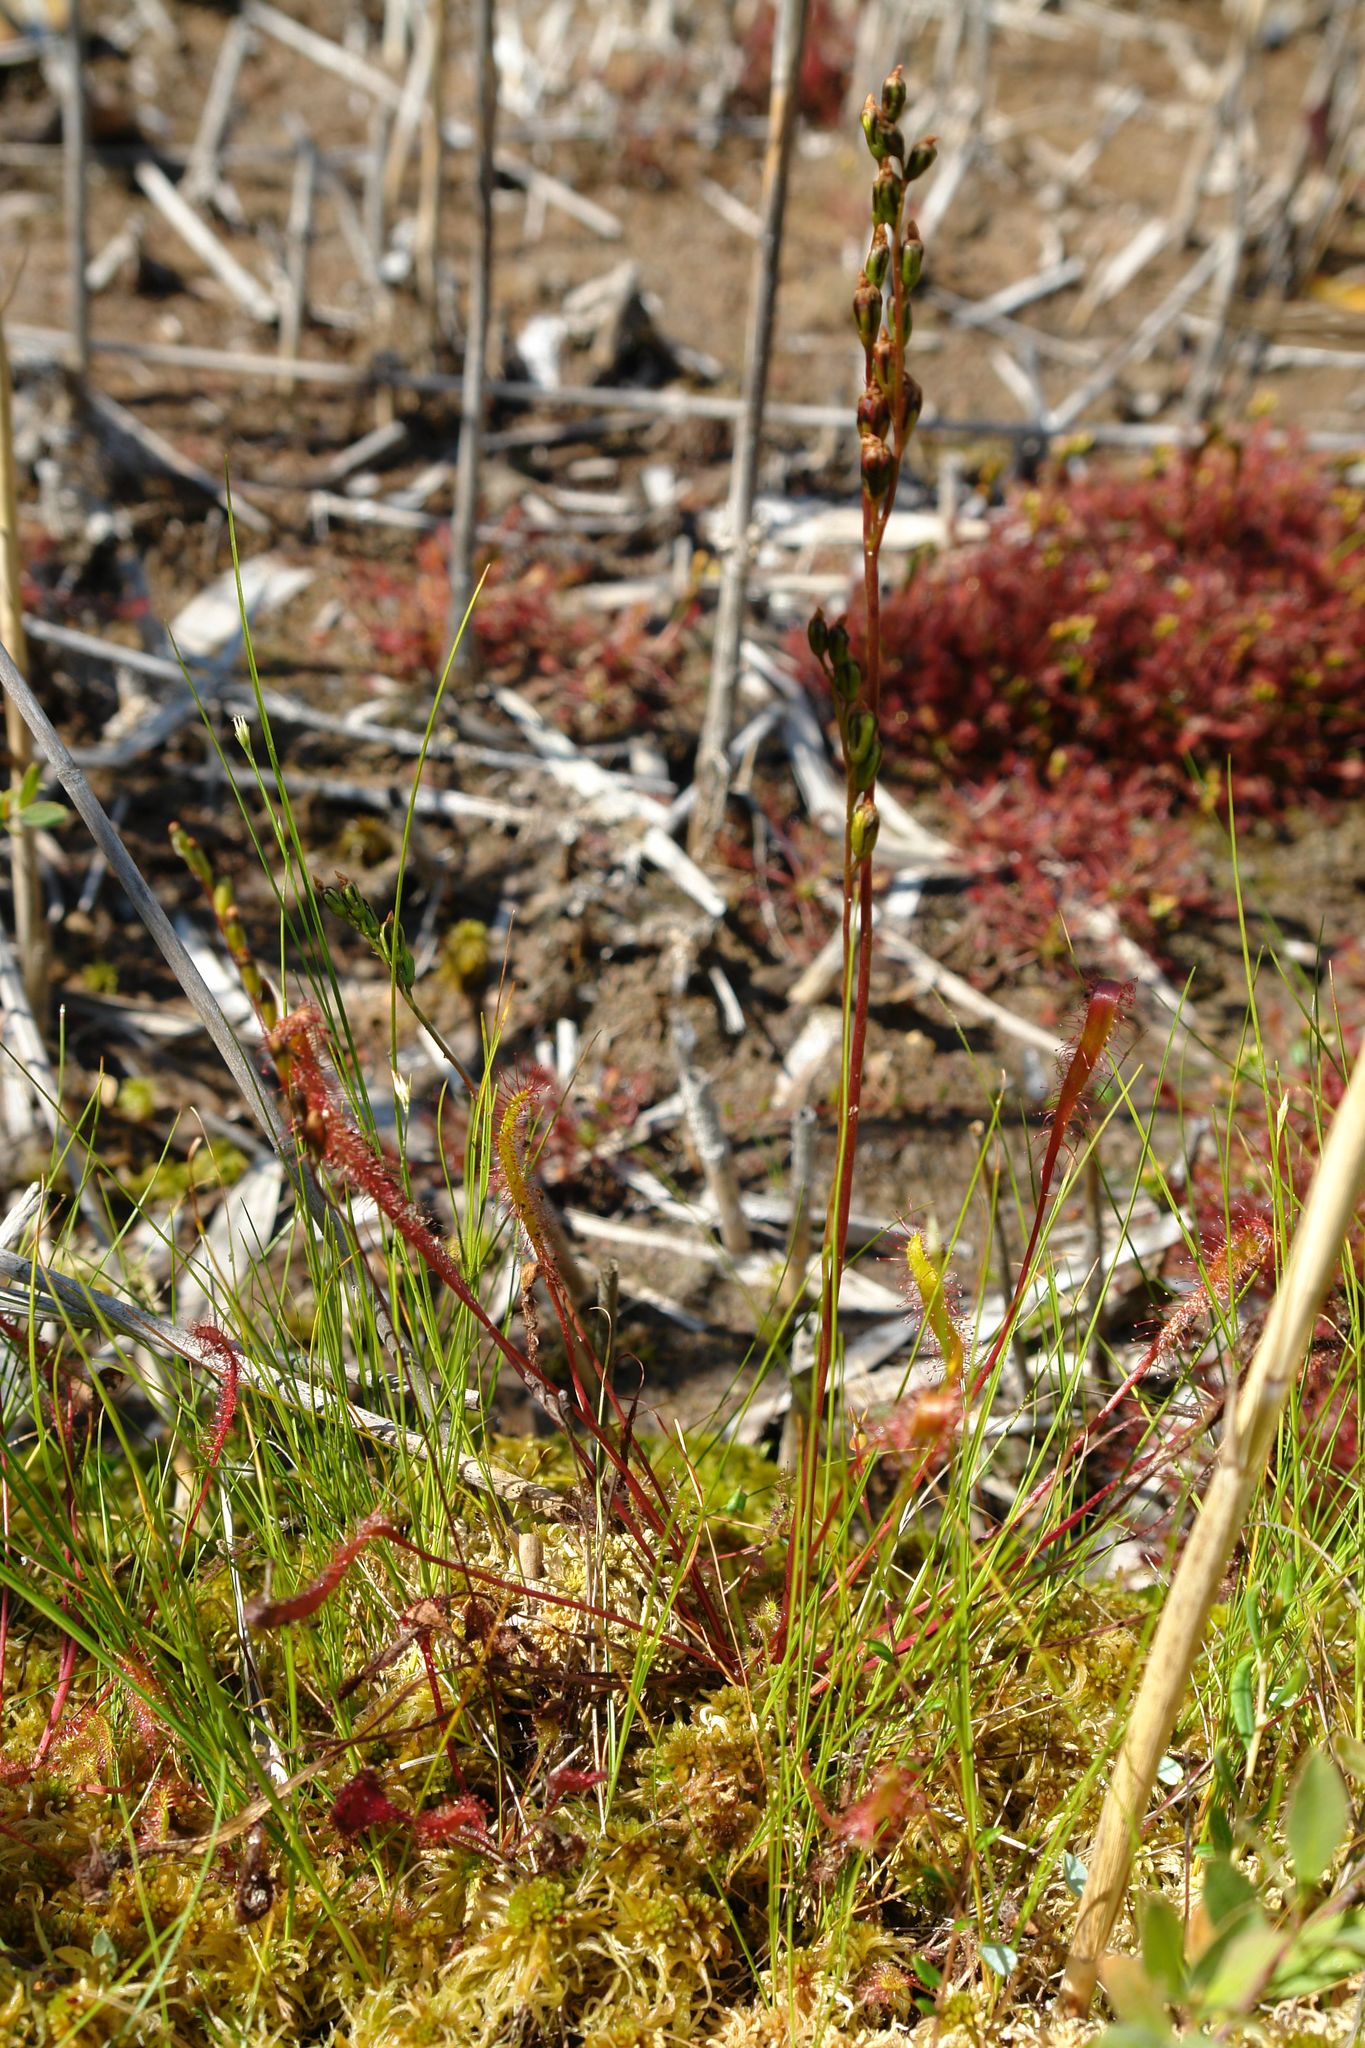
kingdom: Plantae
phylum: Tracheophyta
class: Magnoliopsida
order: Caryophyllales
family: Droseraceae
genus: Drosera
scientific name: Drosera anglica
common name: Great sundew
